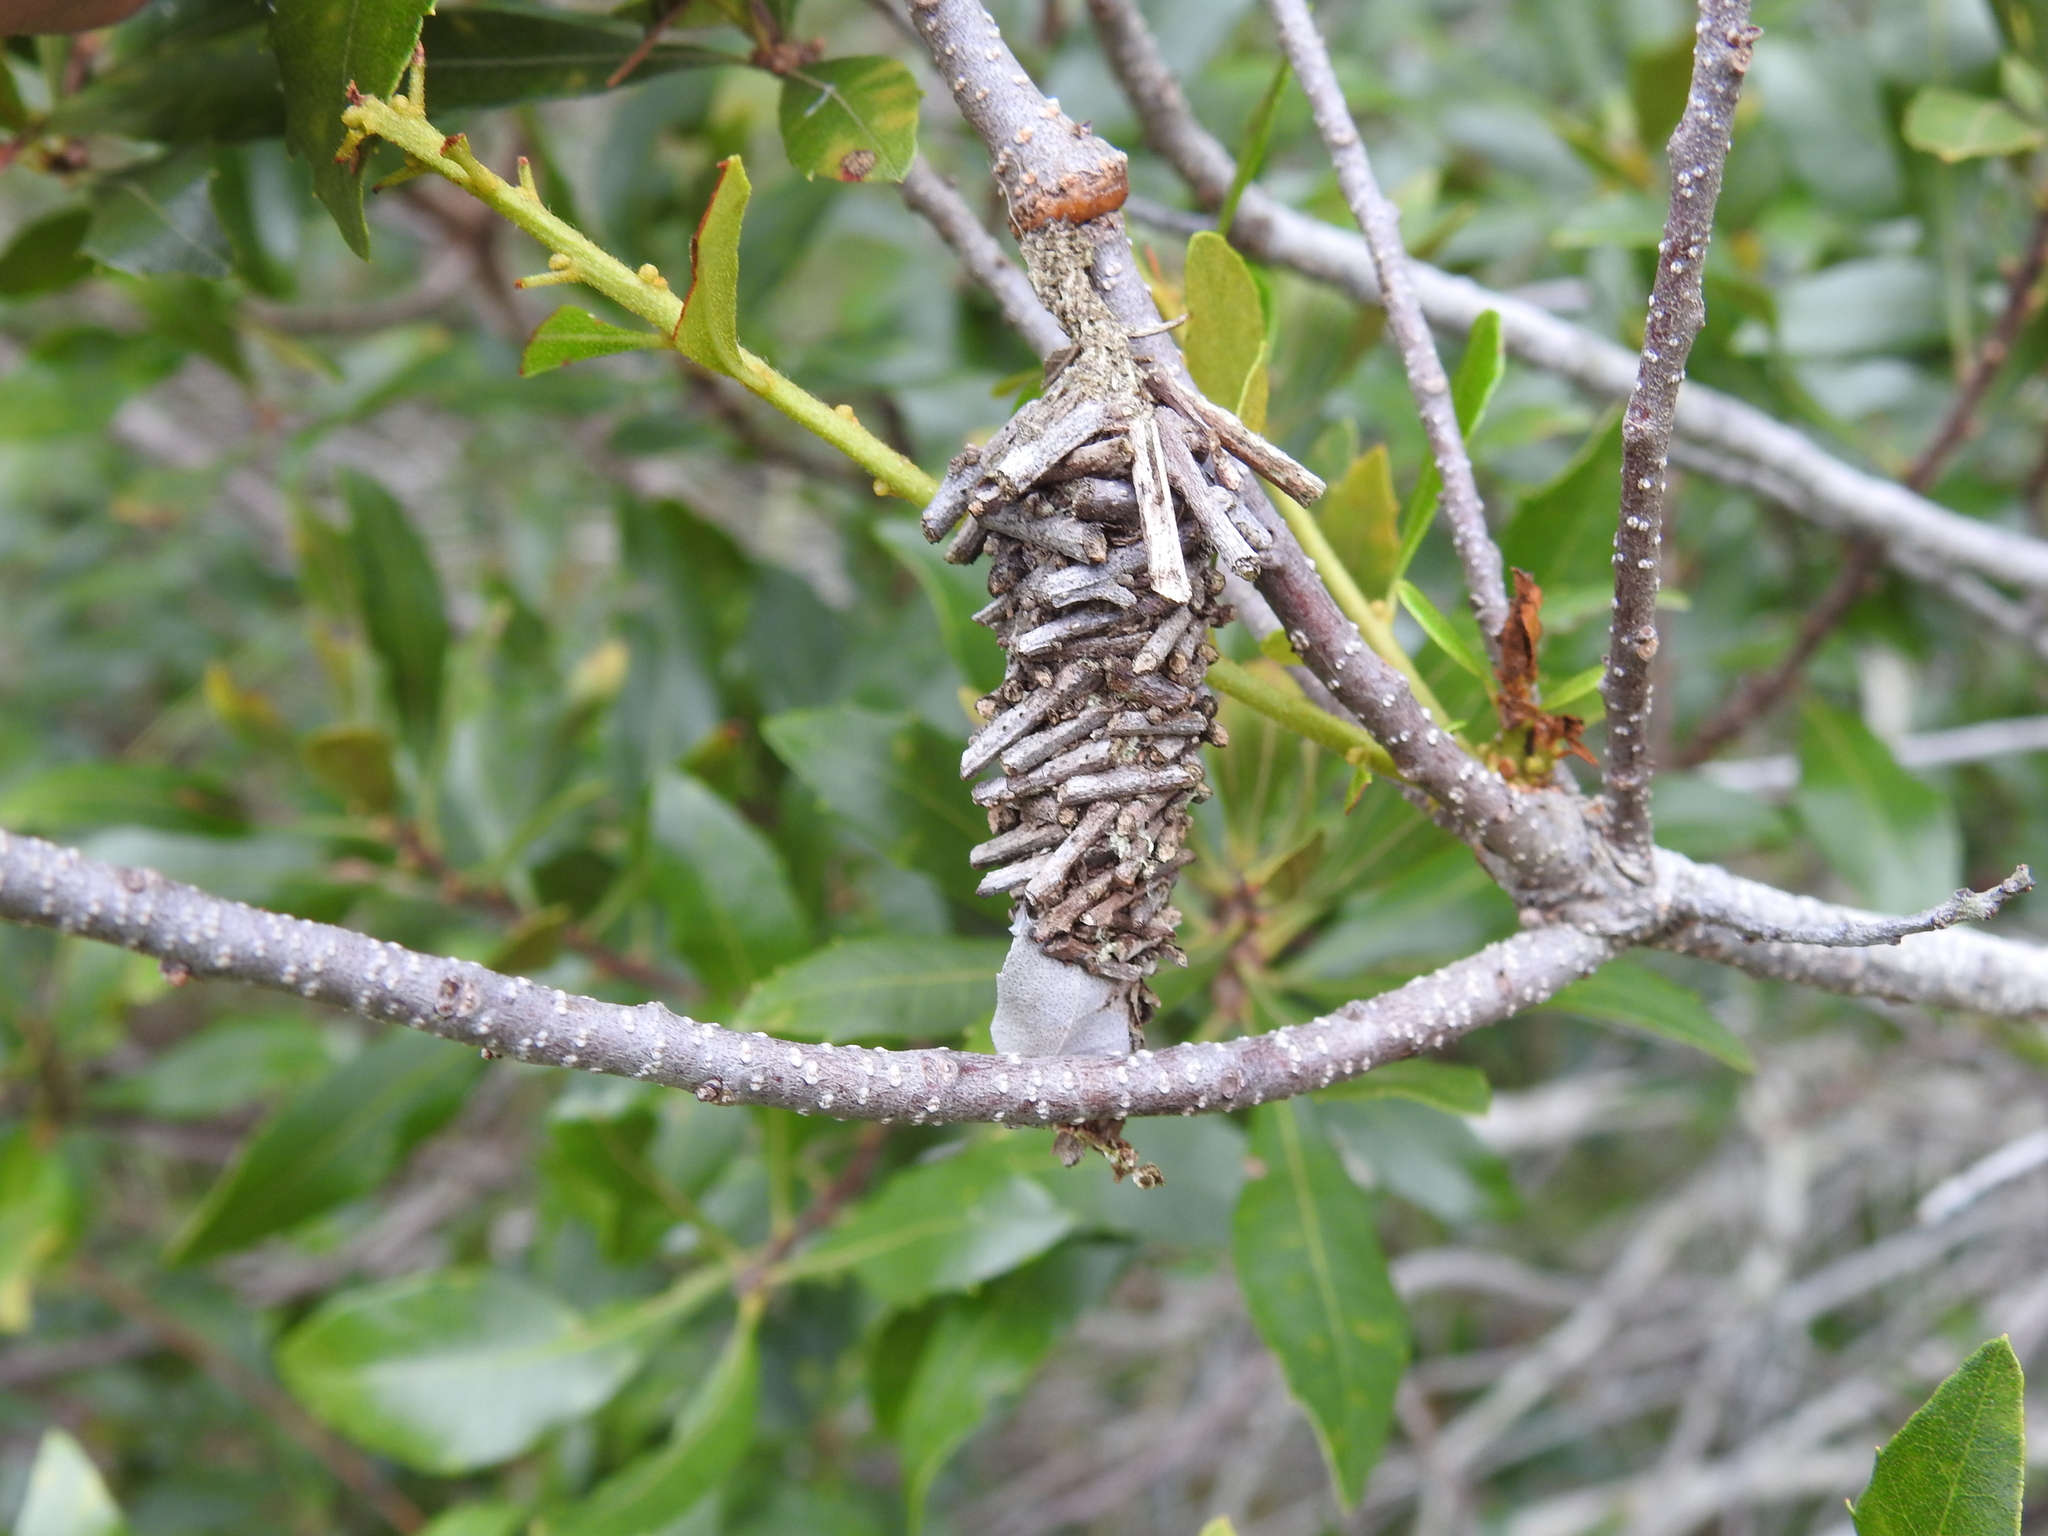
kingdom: Animalia
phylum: Arthropoda
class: Insecta
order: Lepidoptera
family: Psychidae
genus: Oiketicus
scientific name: Oiketicus
